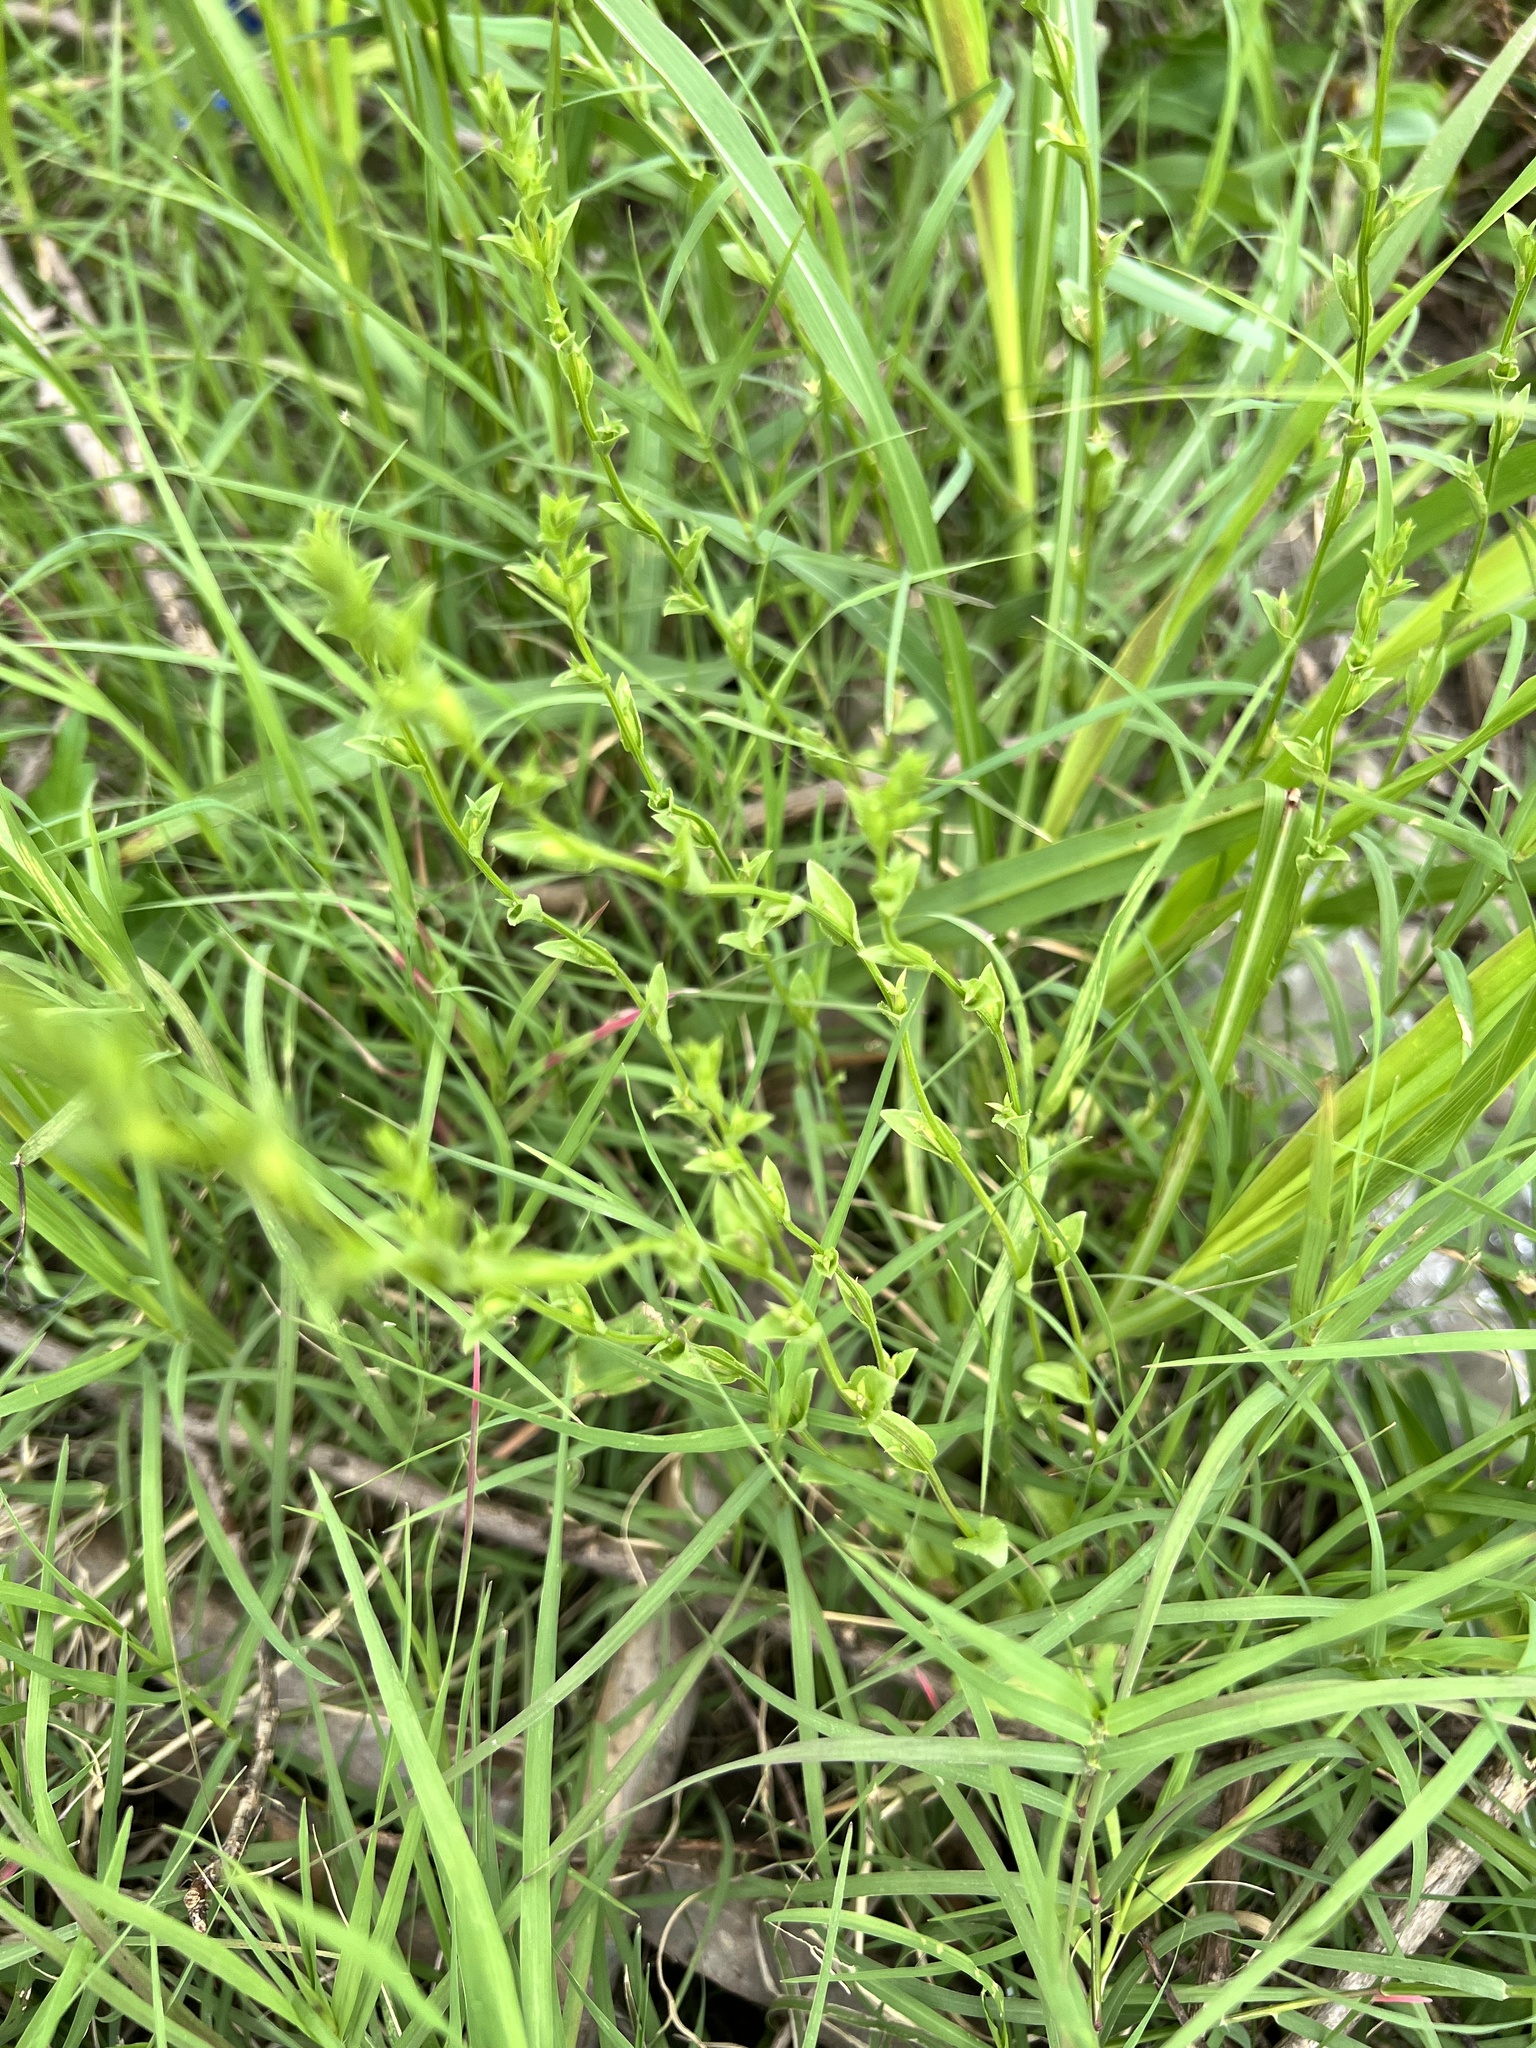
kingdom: Plantae
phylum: Tracheophyta
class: Magnoliopsida
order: Asterales
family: Campanulaceae
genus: Triodanis
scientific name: Triodanis biflora
